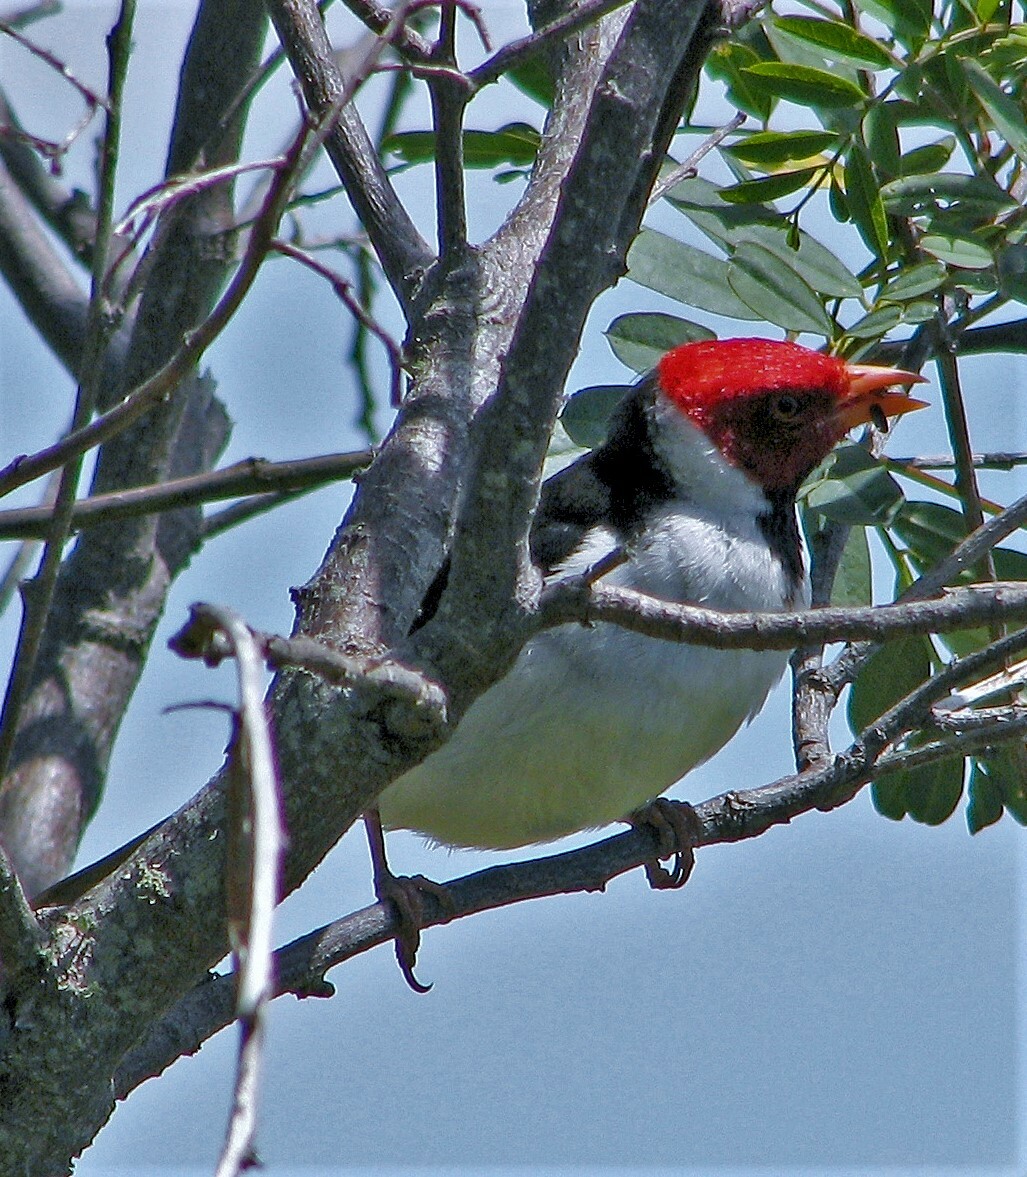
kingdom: Animalia
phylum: Chordata
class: Aves
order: Passeriformes
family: Thraupidae
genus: Paroaria
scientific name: Paroaria capitata
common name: Yellow-billed cardinal
